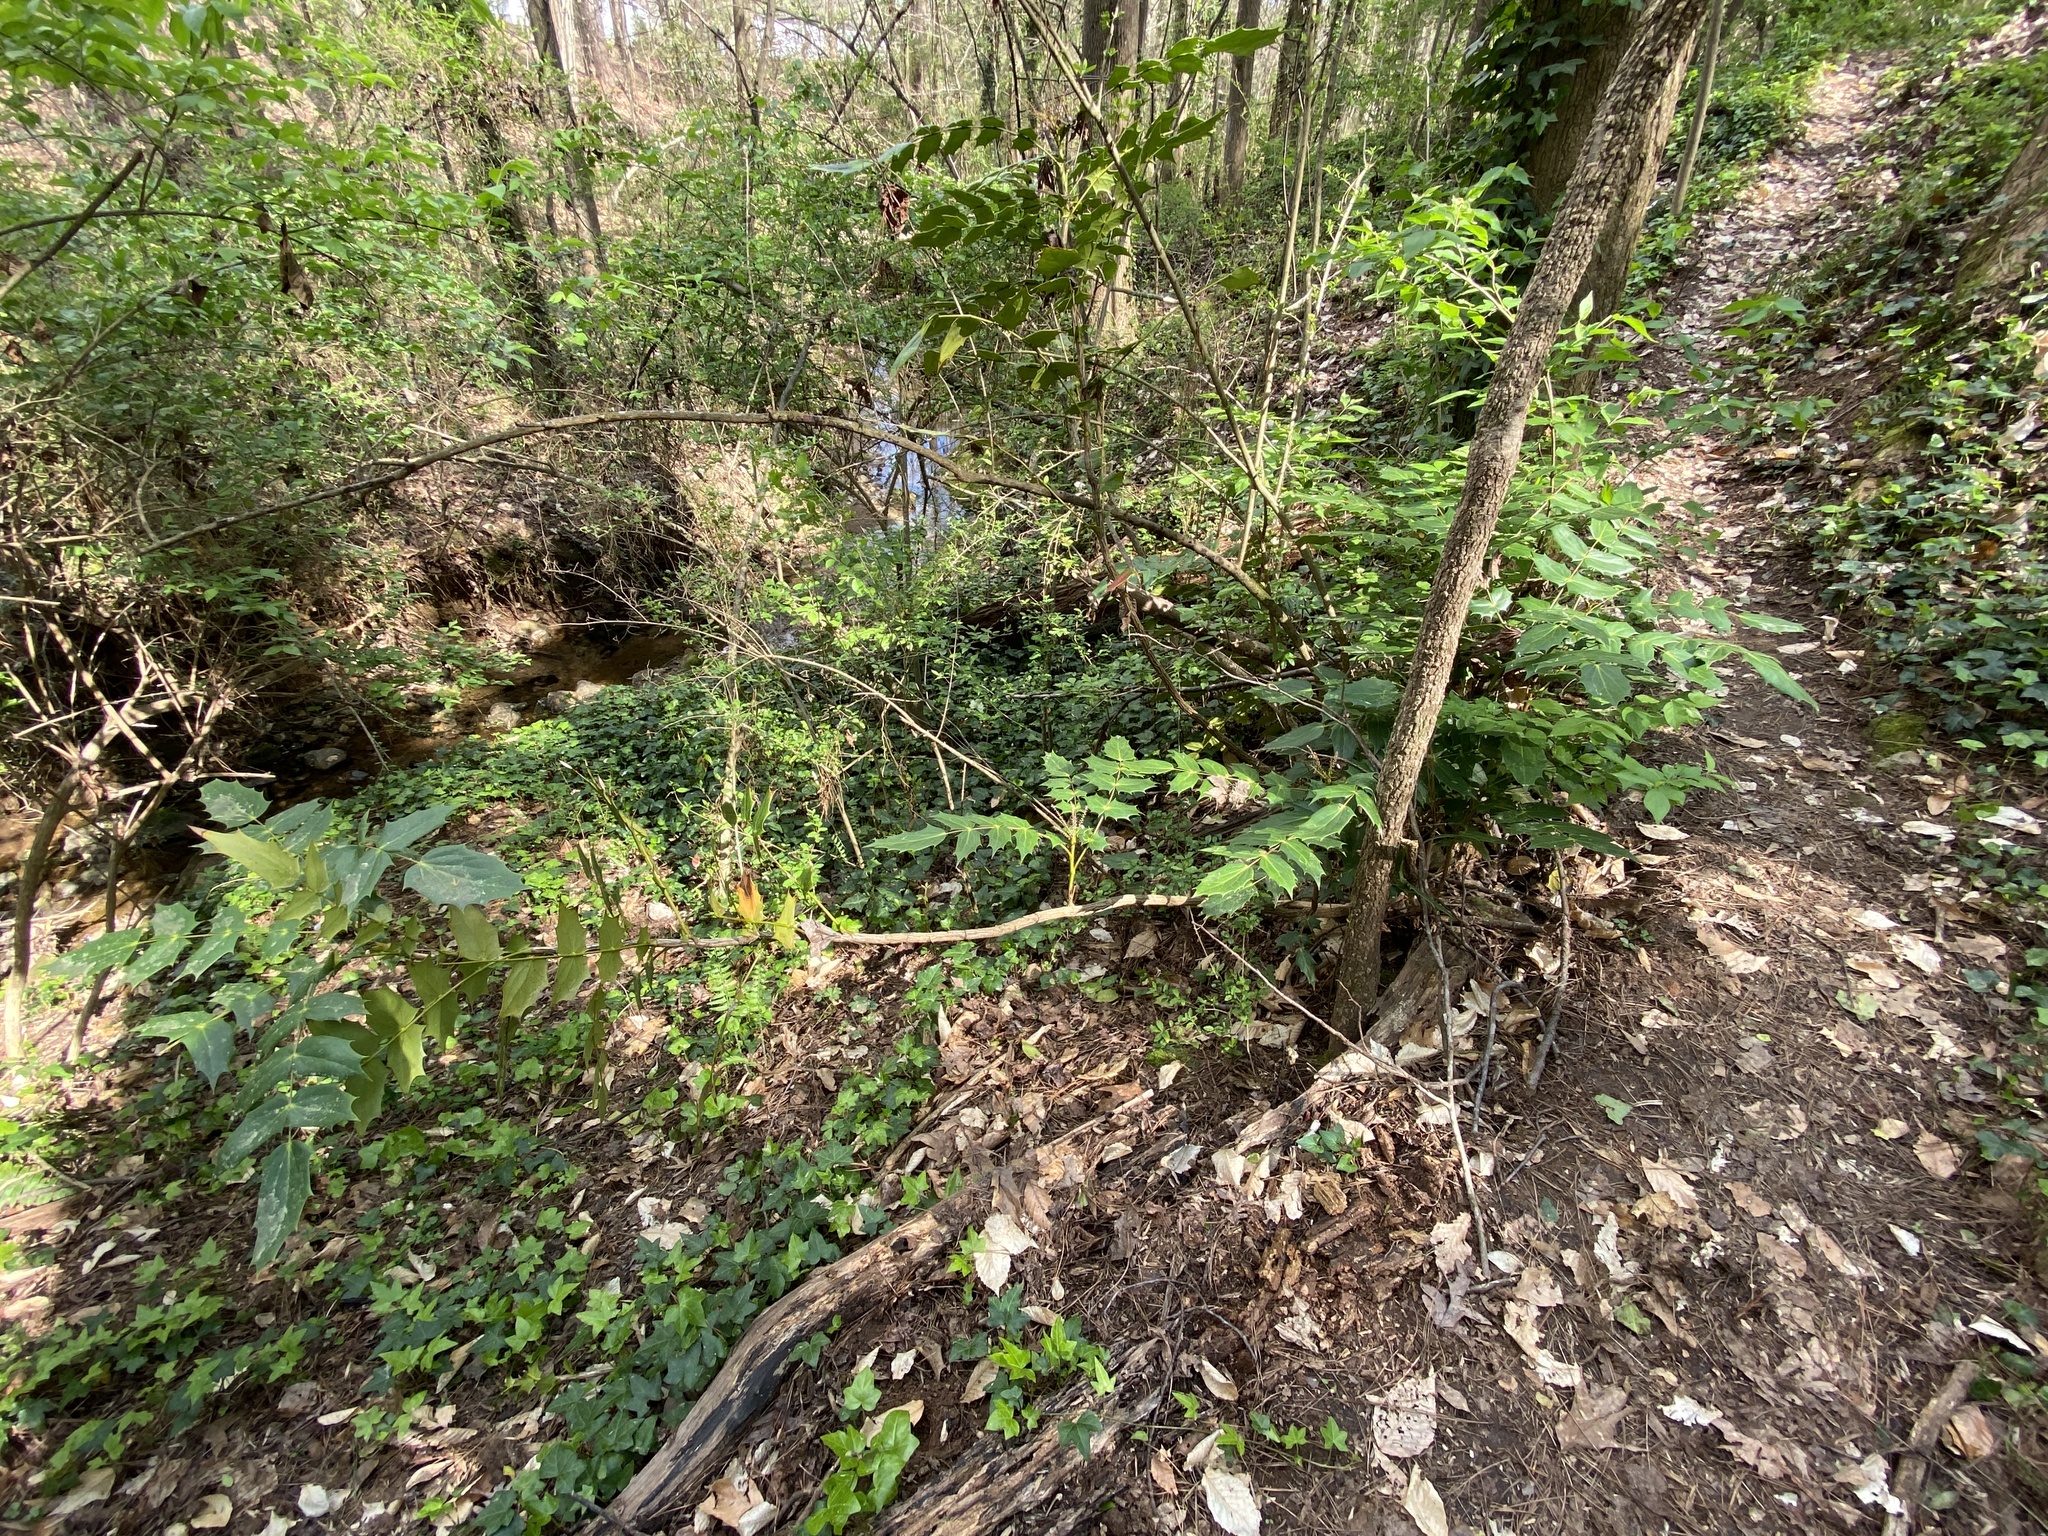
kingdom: Plantae
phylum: Tracheophyta
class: Magnoliopsida
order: Ranunculales
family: Berberidaceae
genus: Mahonia
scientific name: Mahonia bealei
